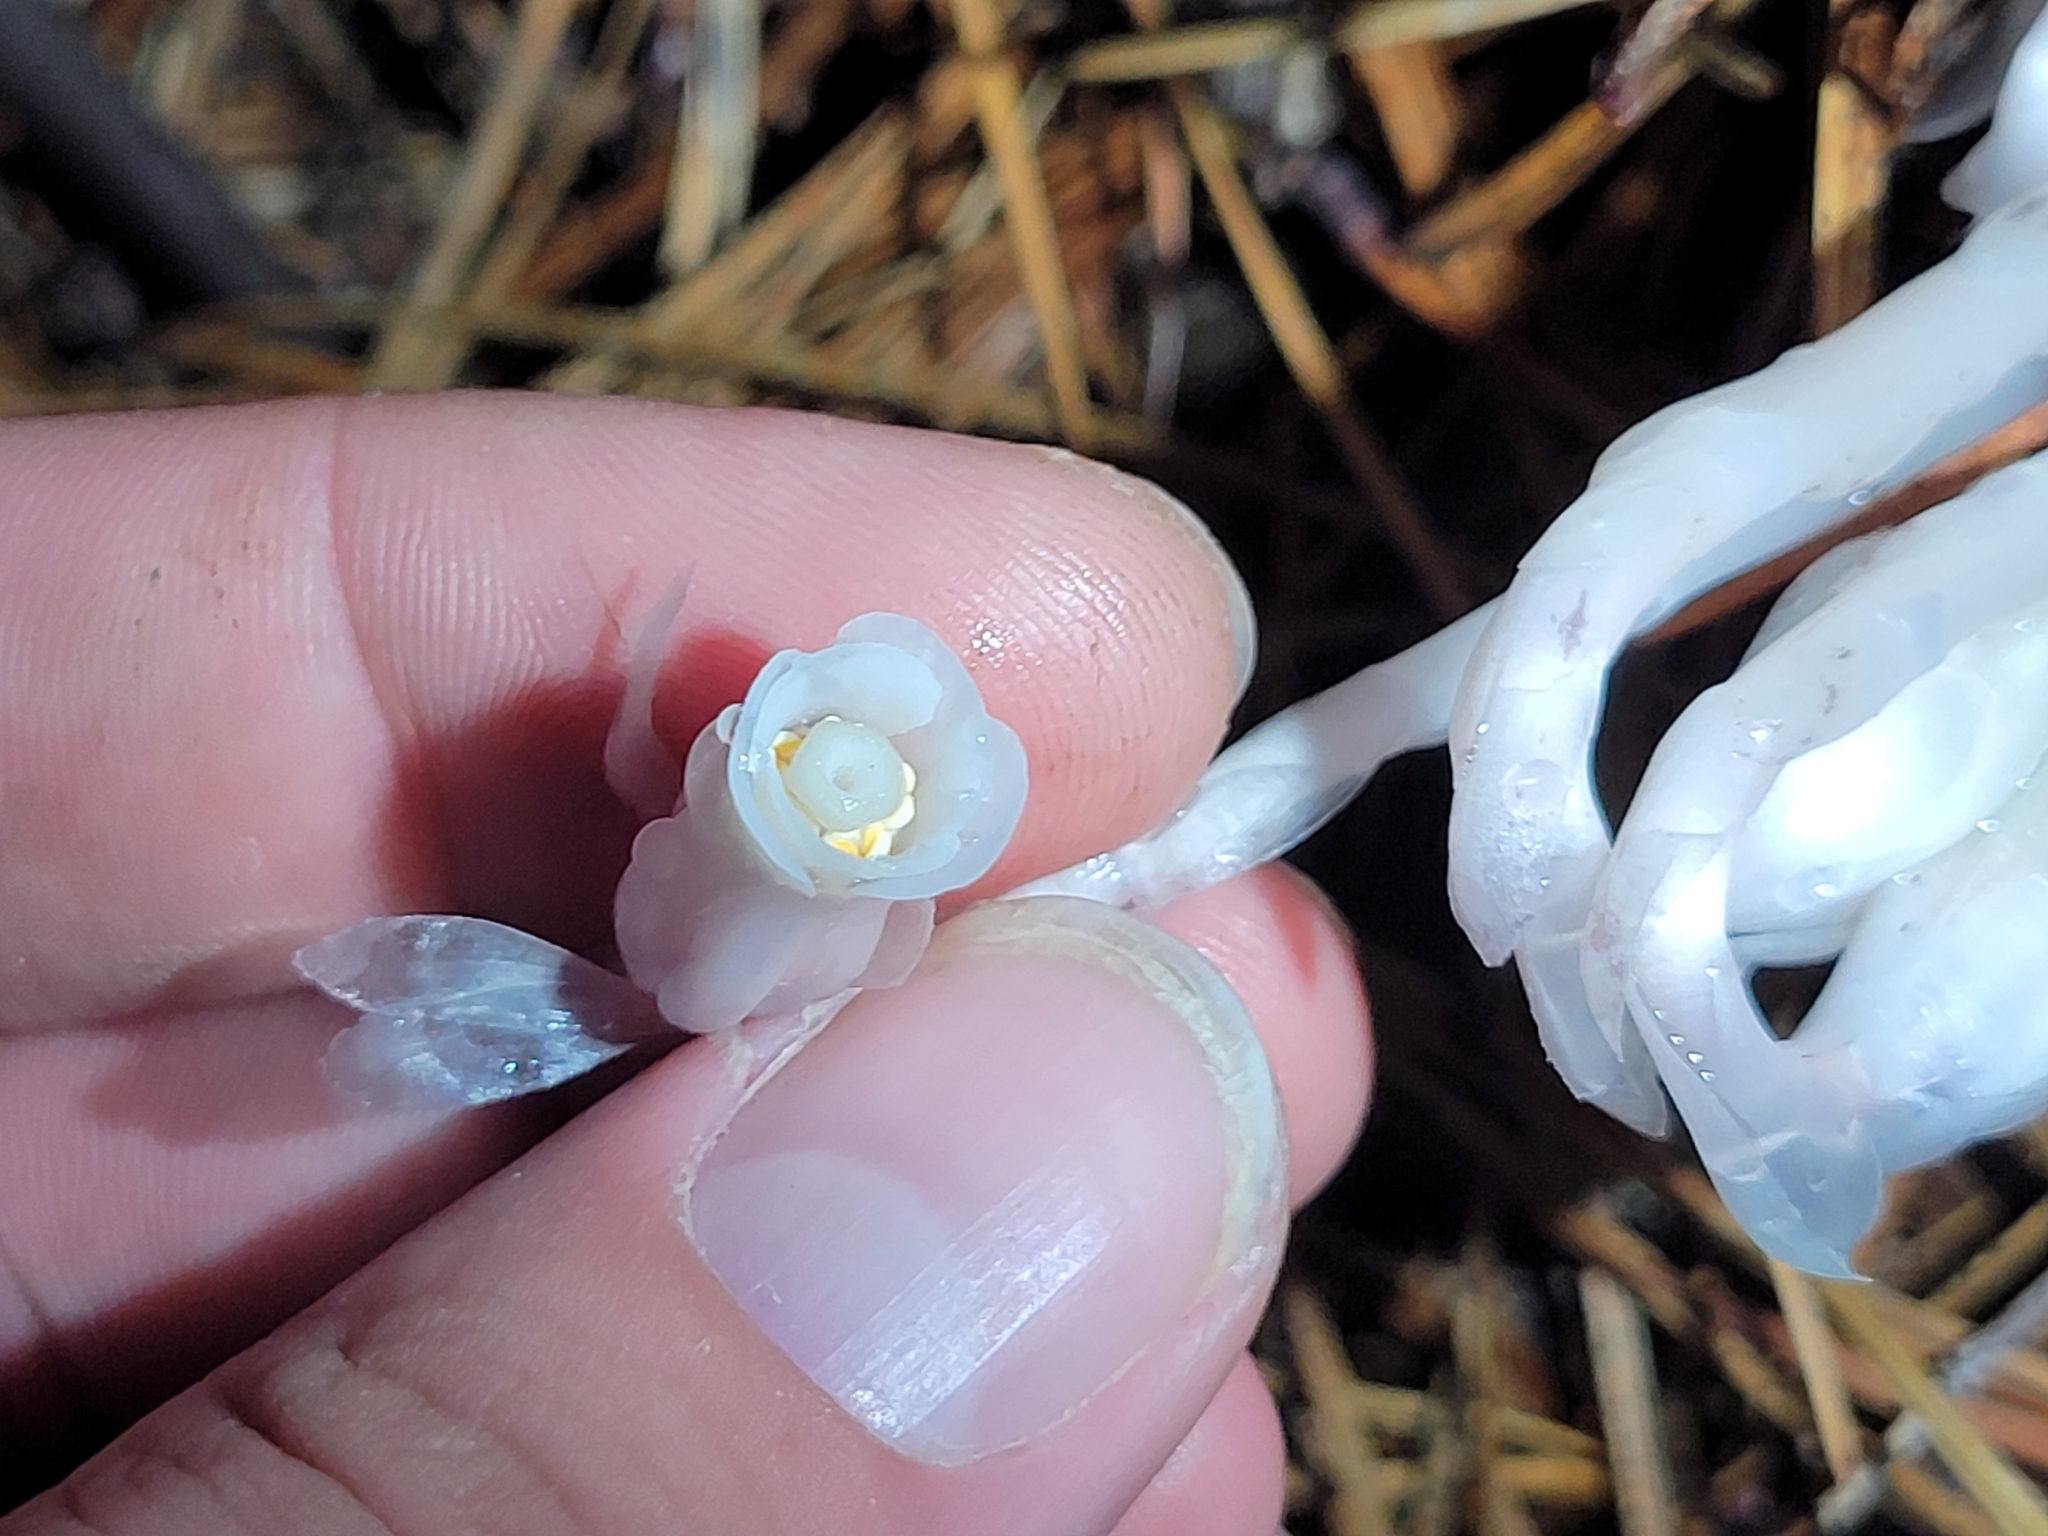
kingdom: Plantae
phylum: Tracheophyta
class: Magnoliopsida
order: Ericales
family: Ericaceae
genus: Monotropa
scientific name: Monotropa uniflora
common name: Convulsion root
